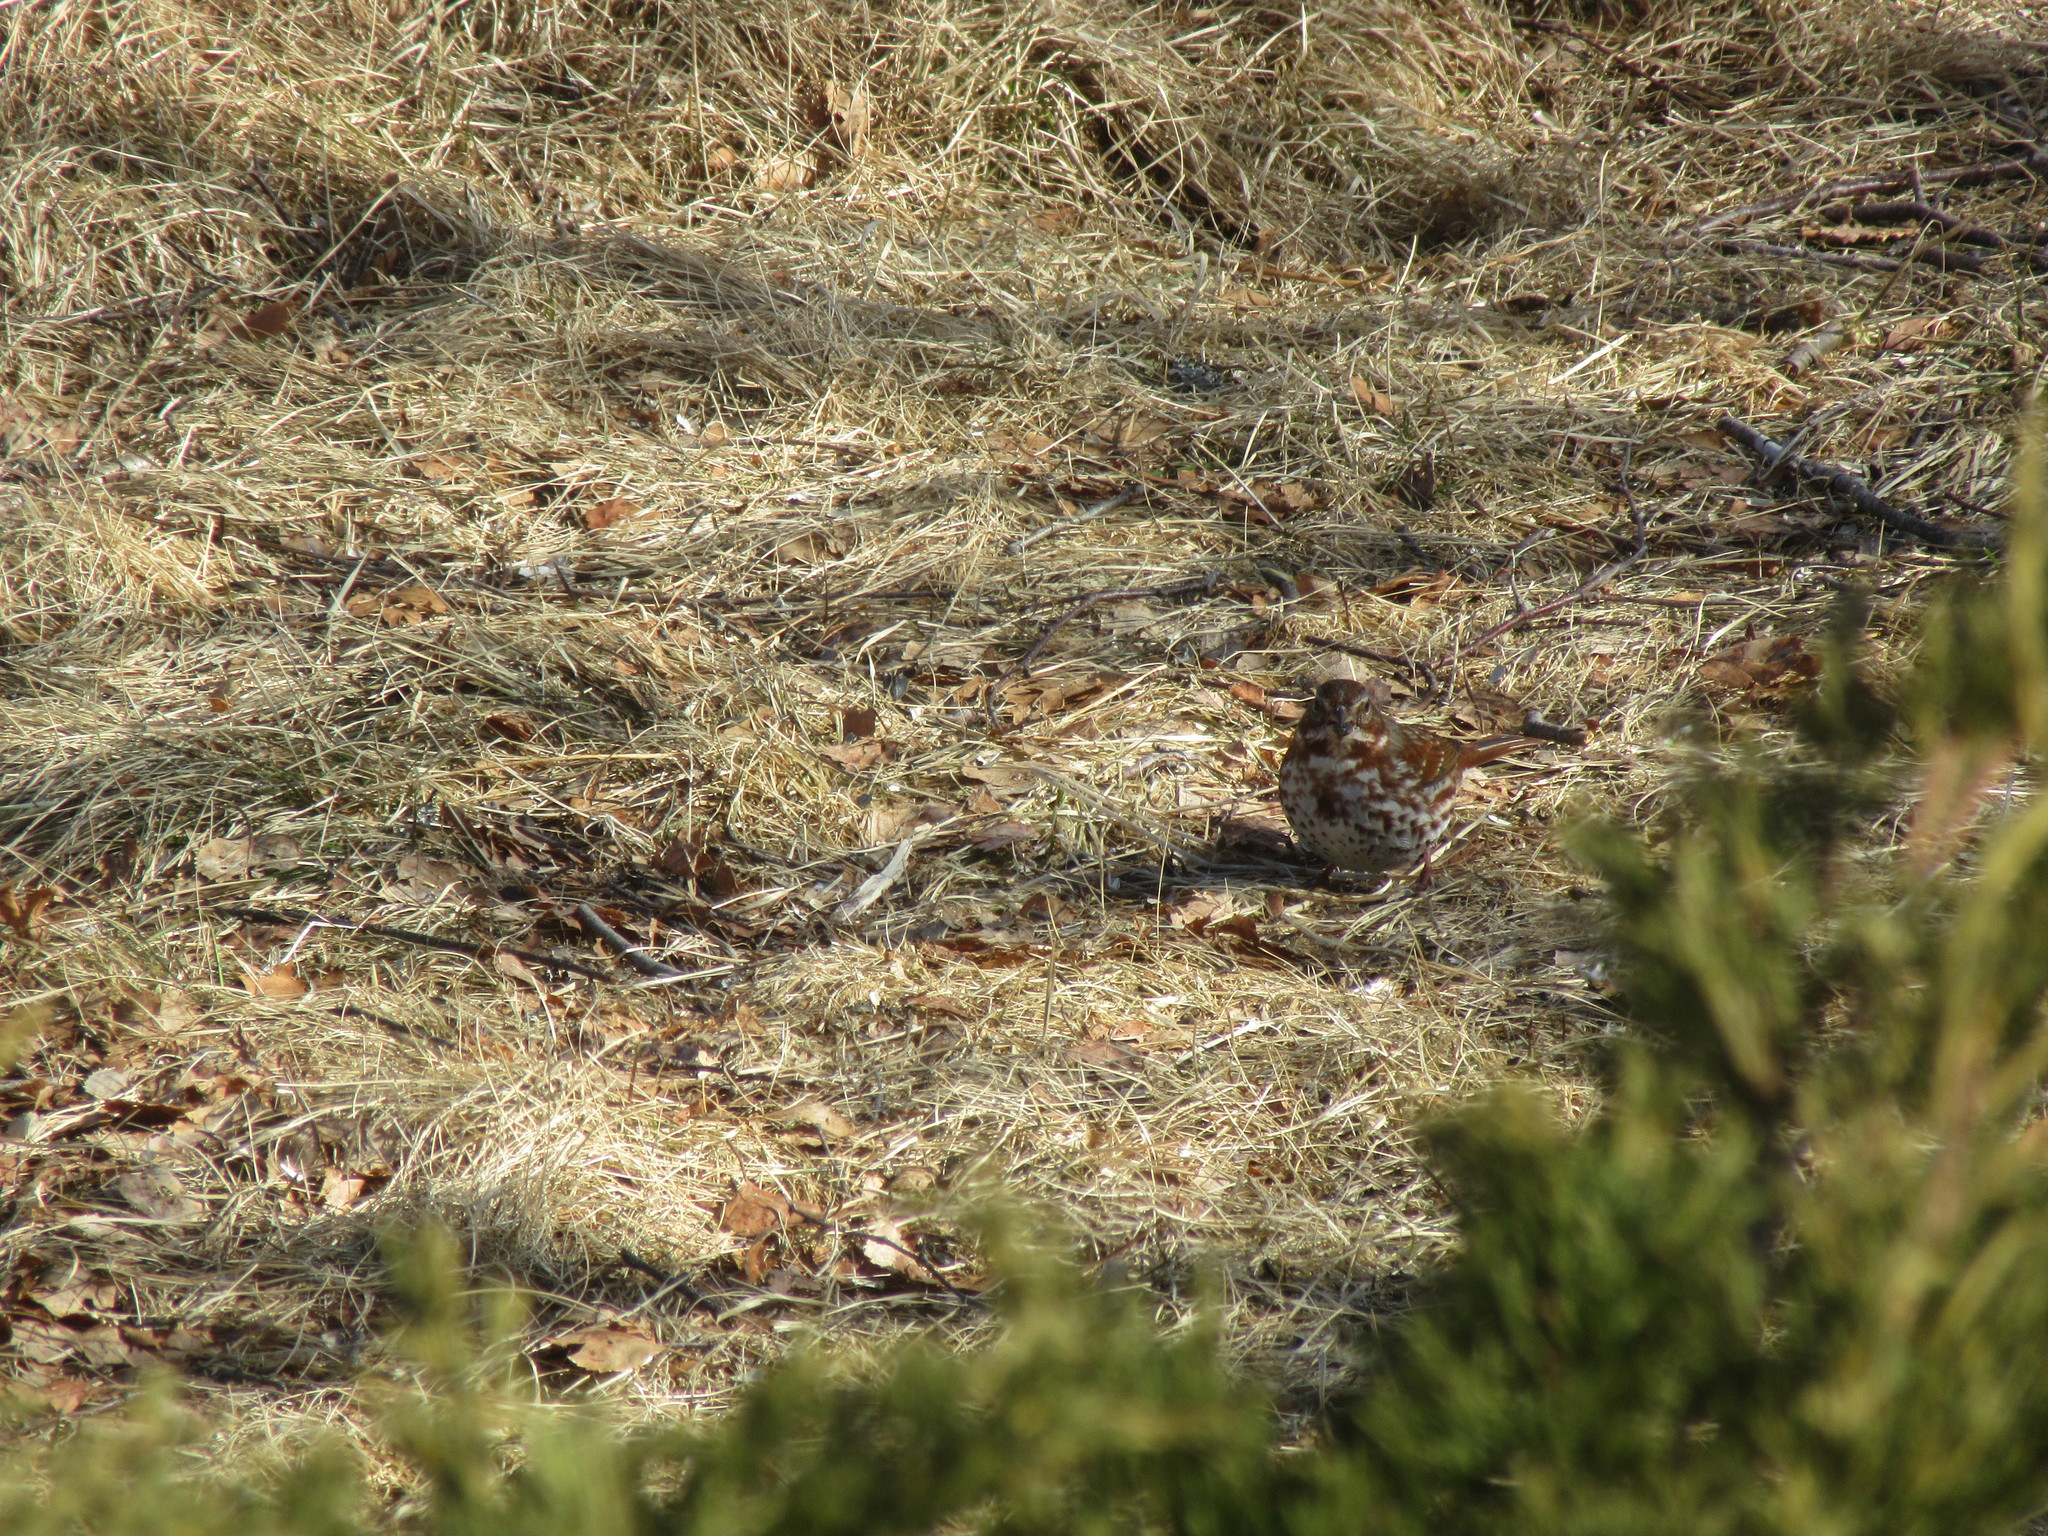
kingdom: Animalia
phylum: Chordata
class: Aves
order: Passeriformes
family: Passerellidae
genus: Passerella
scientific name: Passerella iliaca
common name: Fox sparrow
